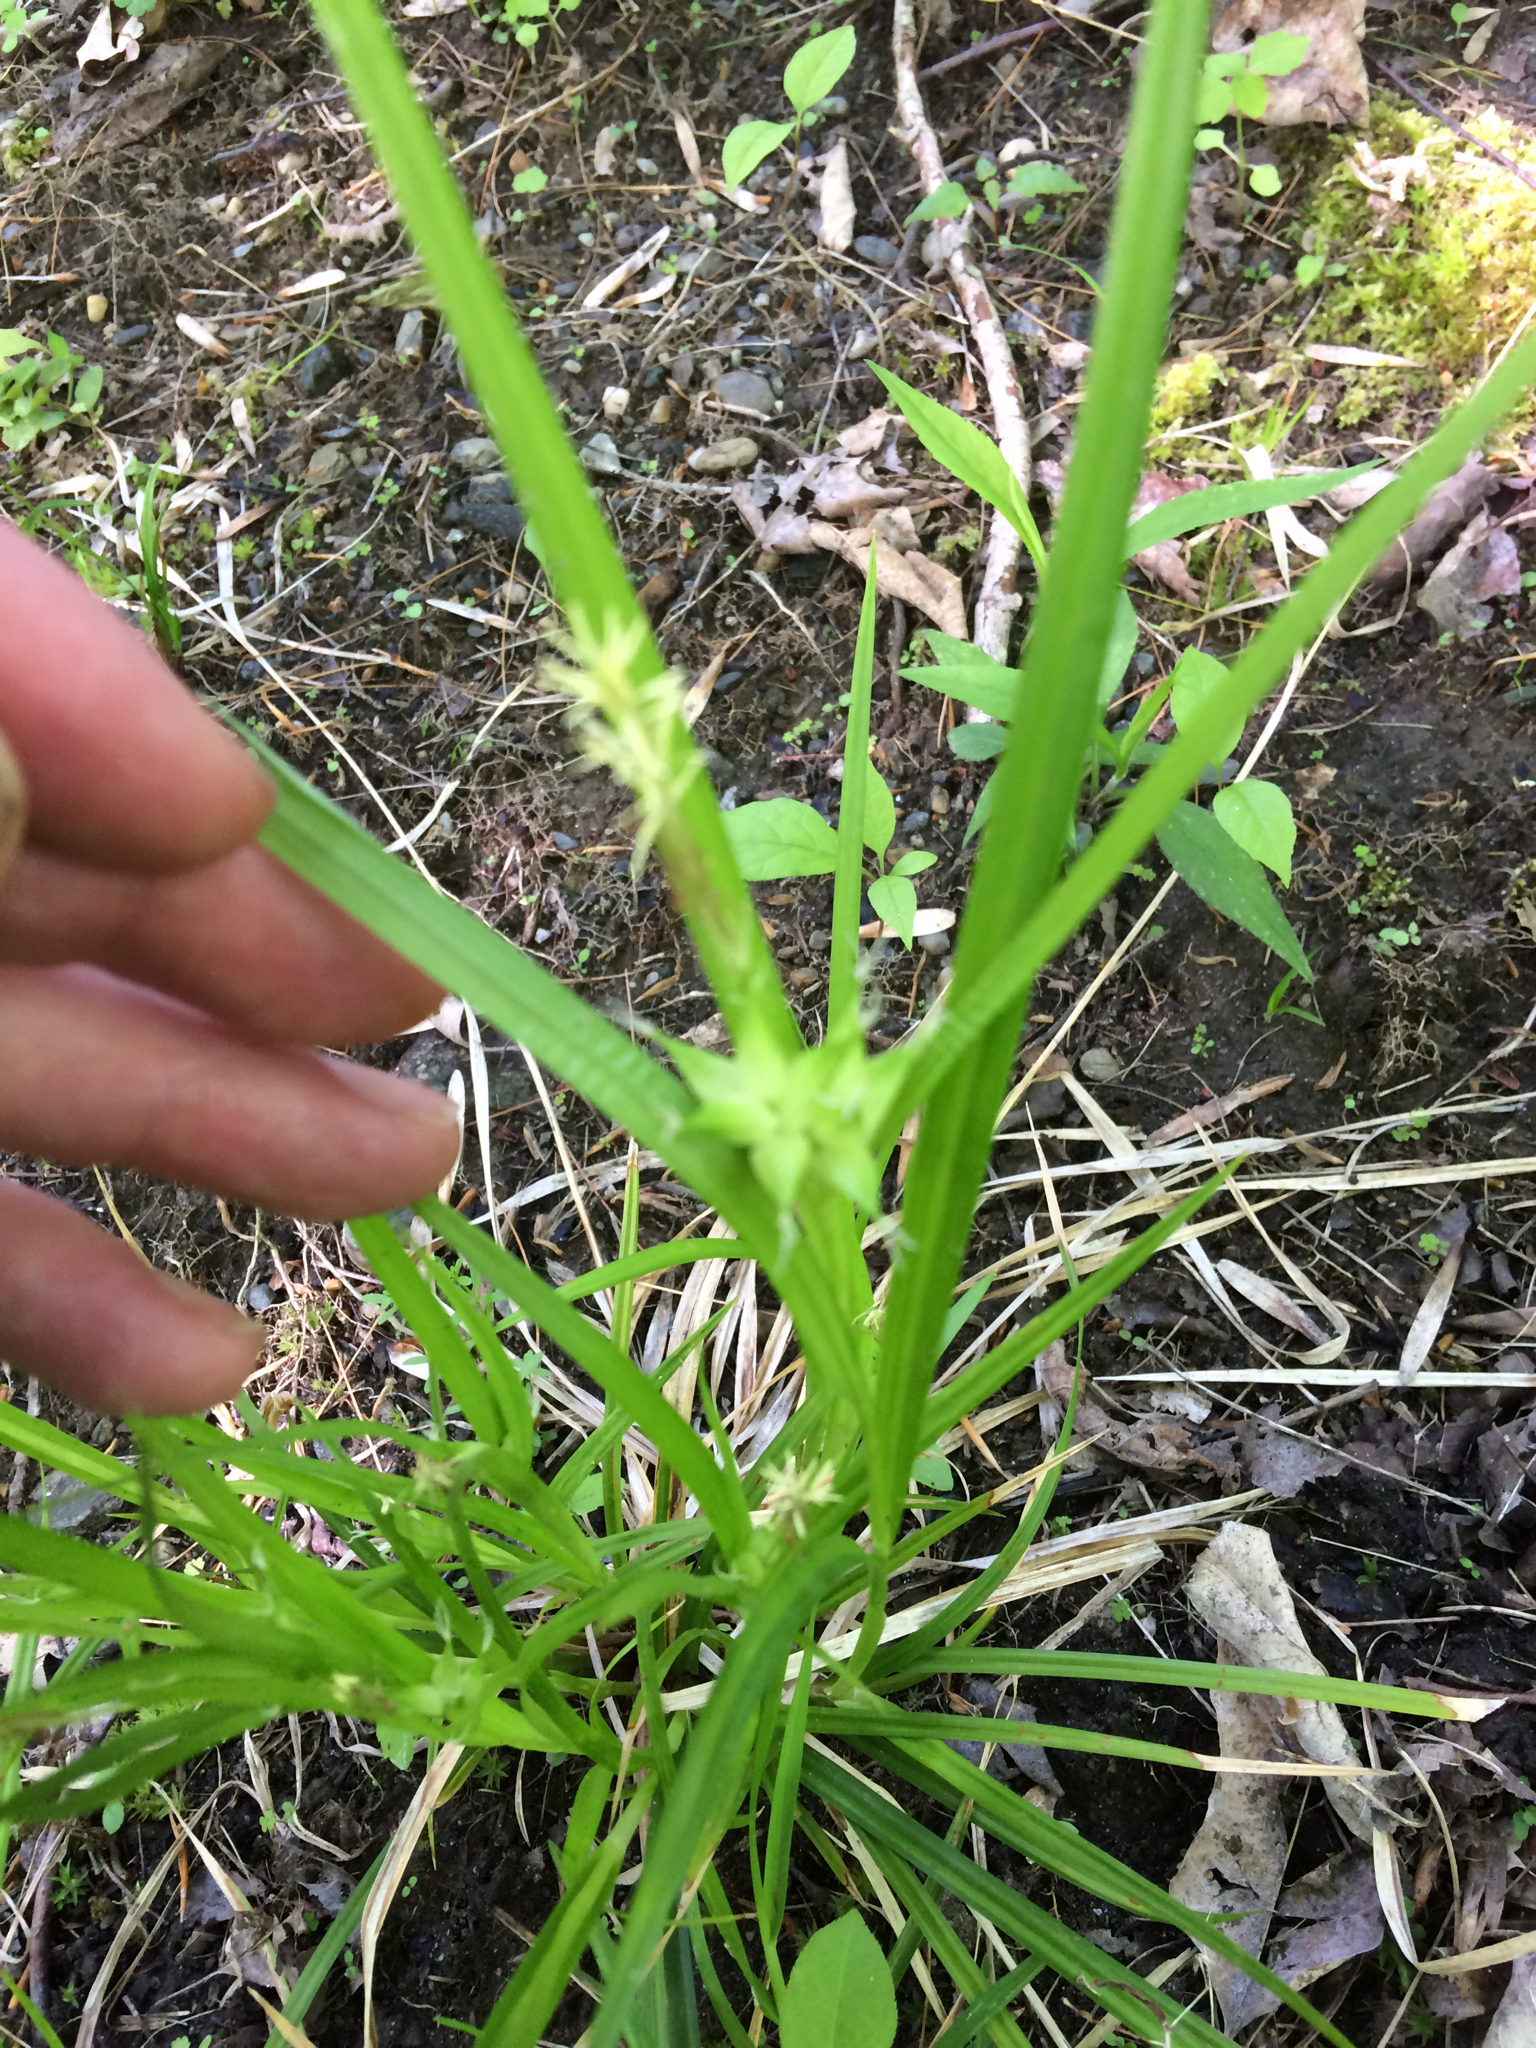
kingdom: Plantae
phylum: Tracheophyta
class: Liliopsida
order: Poales
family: Cyperaceae
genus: Carex
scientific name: Carex intumescens
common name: Greater bladder sedge
